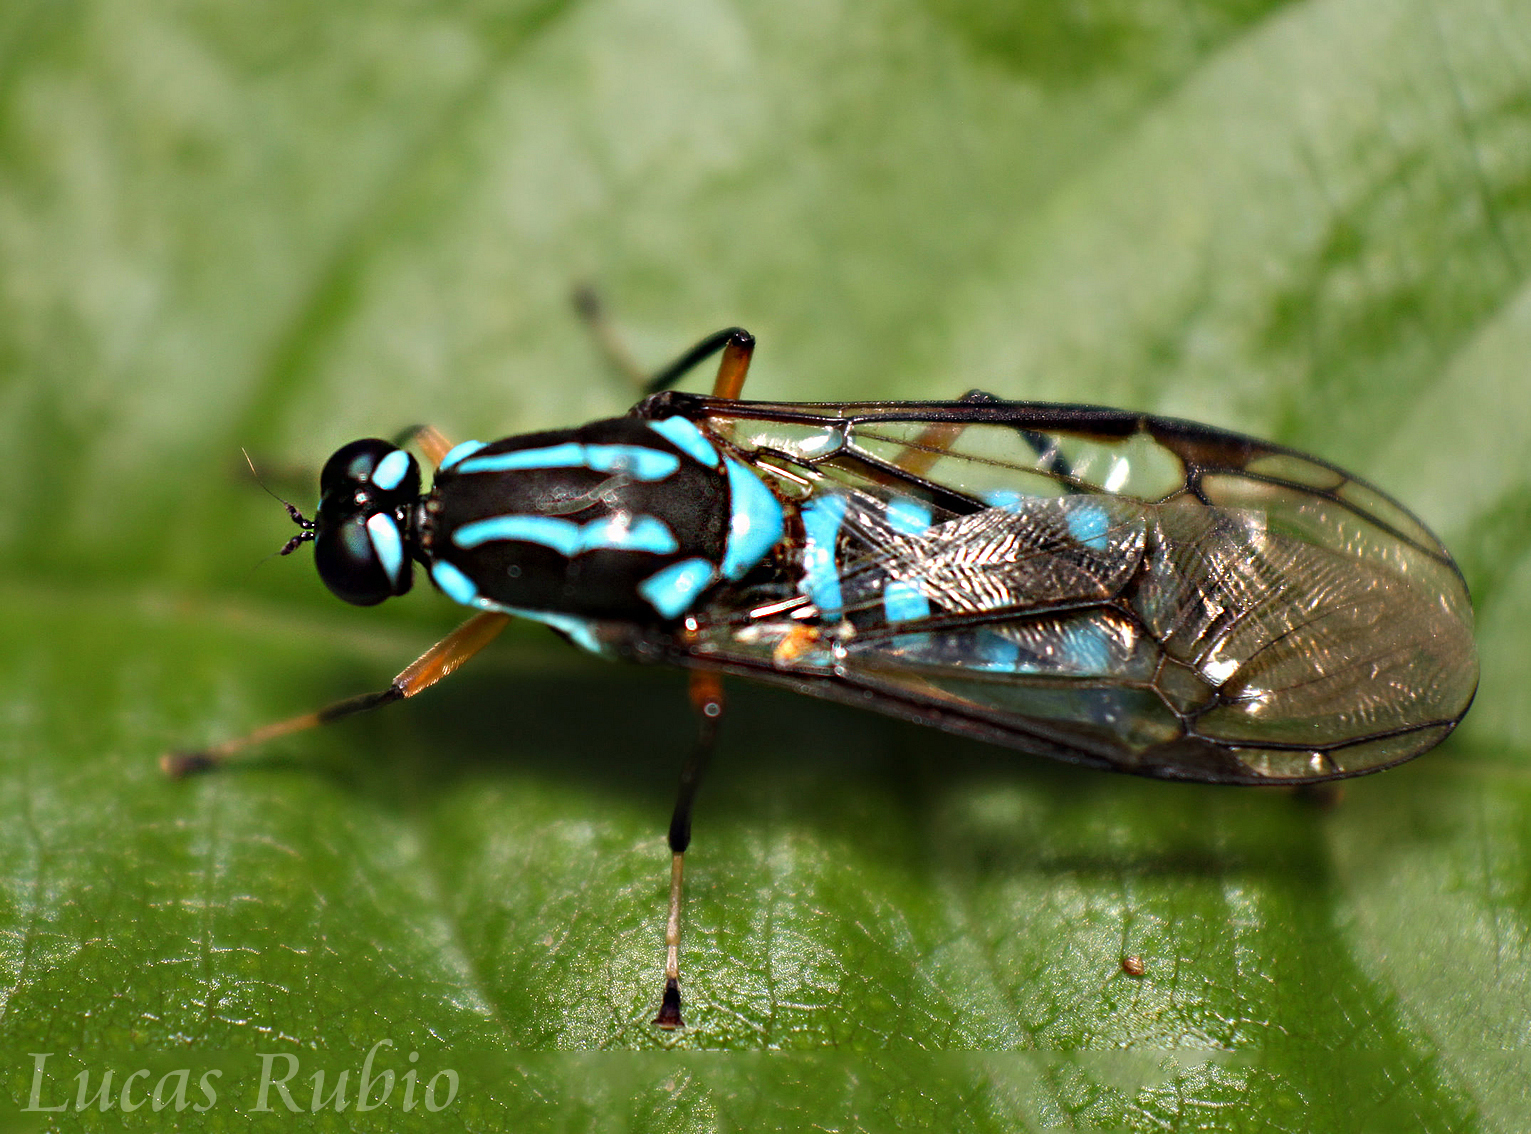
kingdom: Animalia
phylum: Arthropoda
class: Insecta
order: Diptera
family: Stratiomyidae
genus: Raphiocera
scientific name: Raphiocera armata
